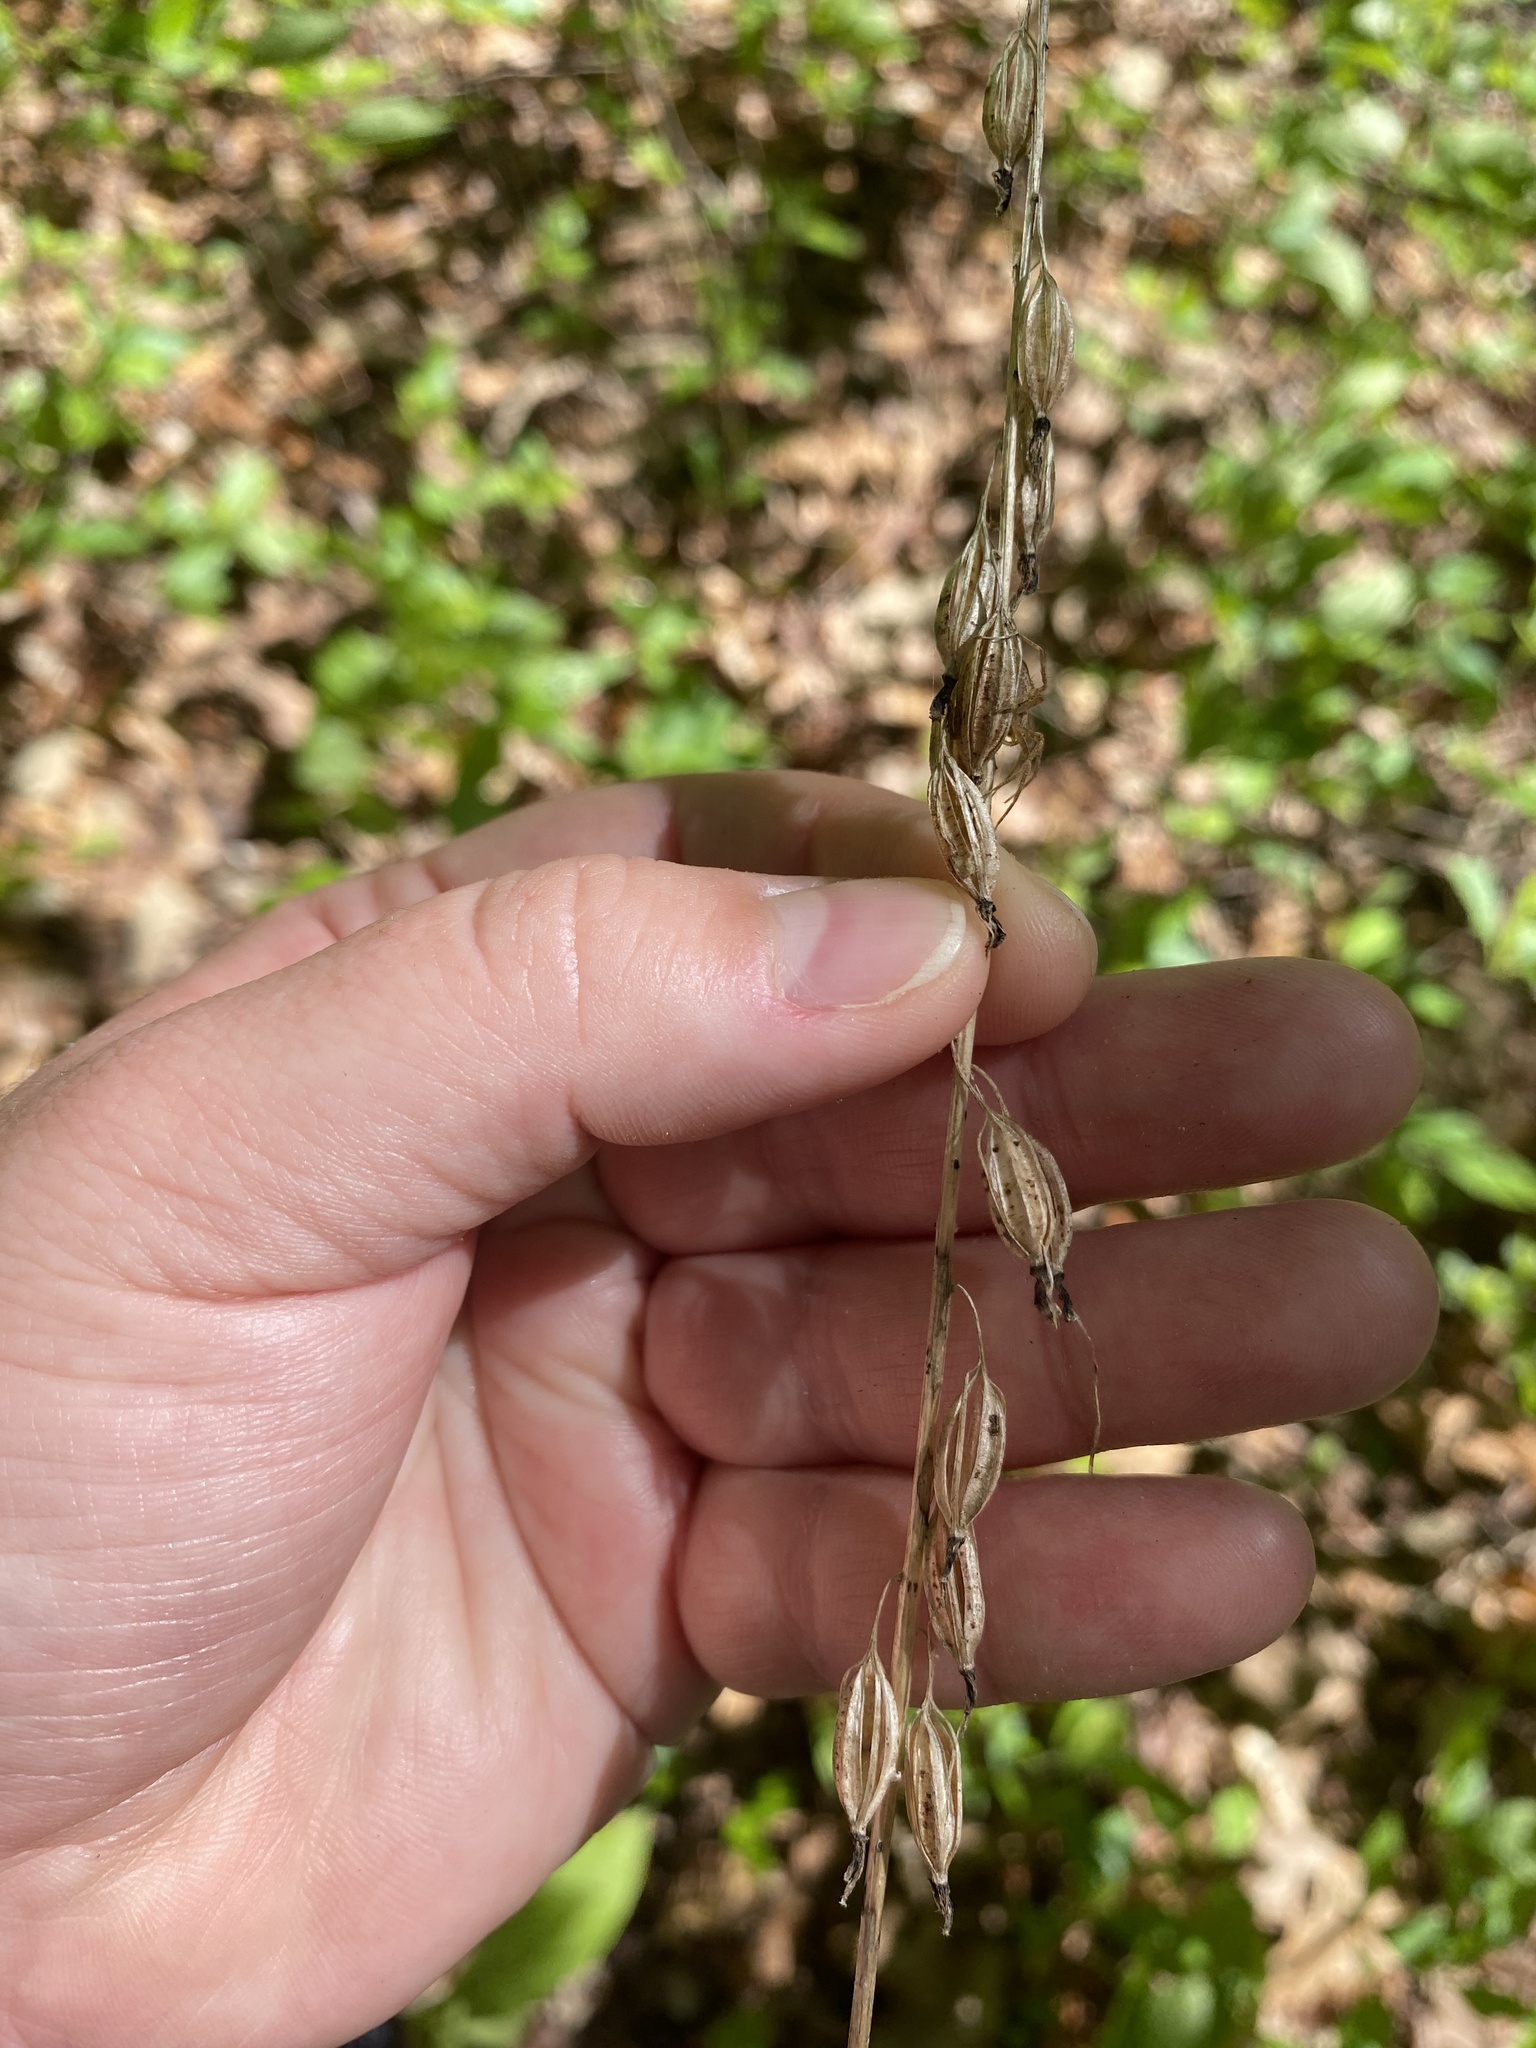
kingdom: Plantae
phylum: Tracheophyta
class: Liliopsida
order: Asparagales
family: Orchidaceae
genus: Tipularia
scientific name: Tipularia discolor
